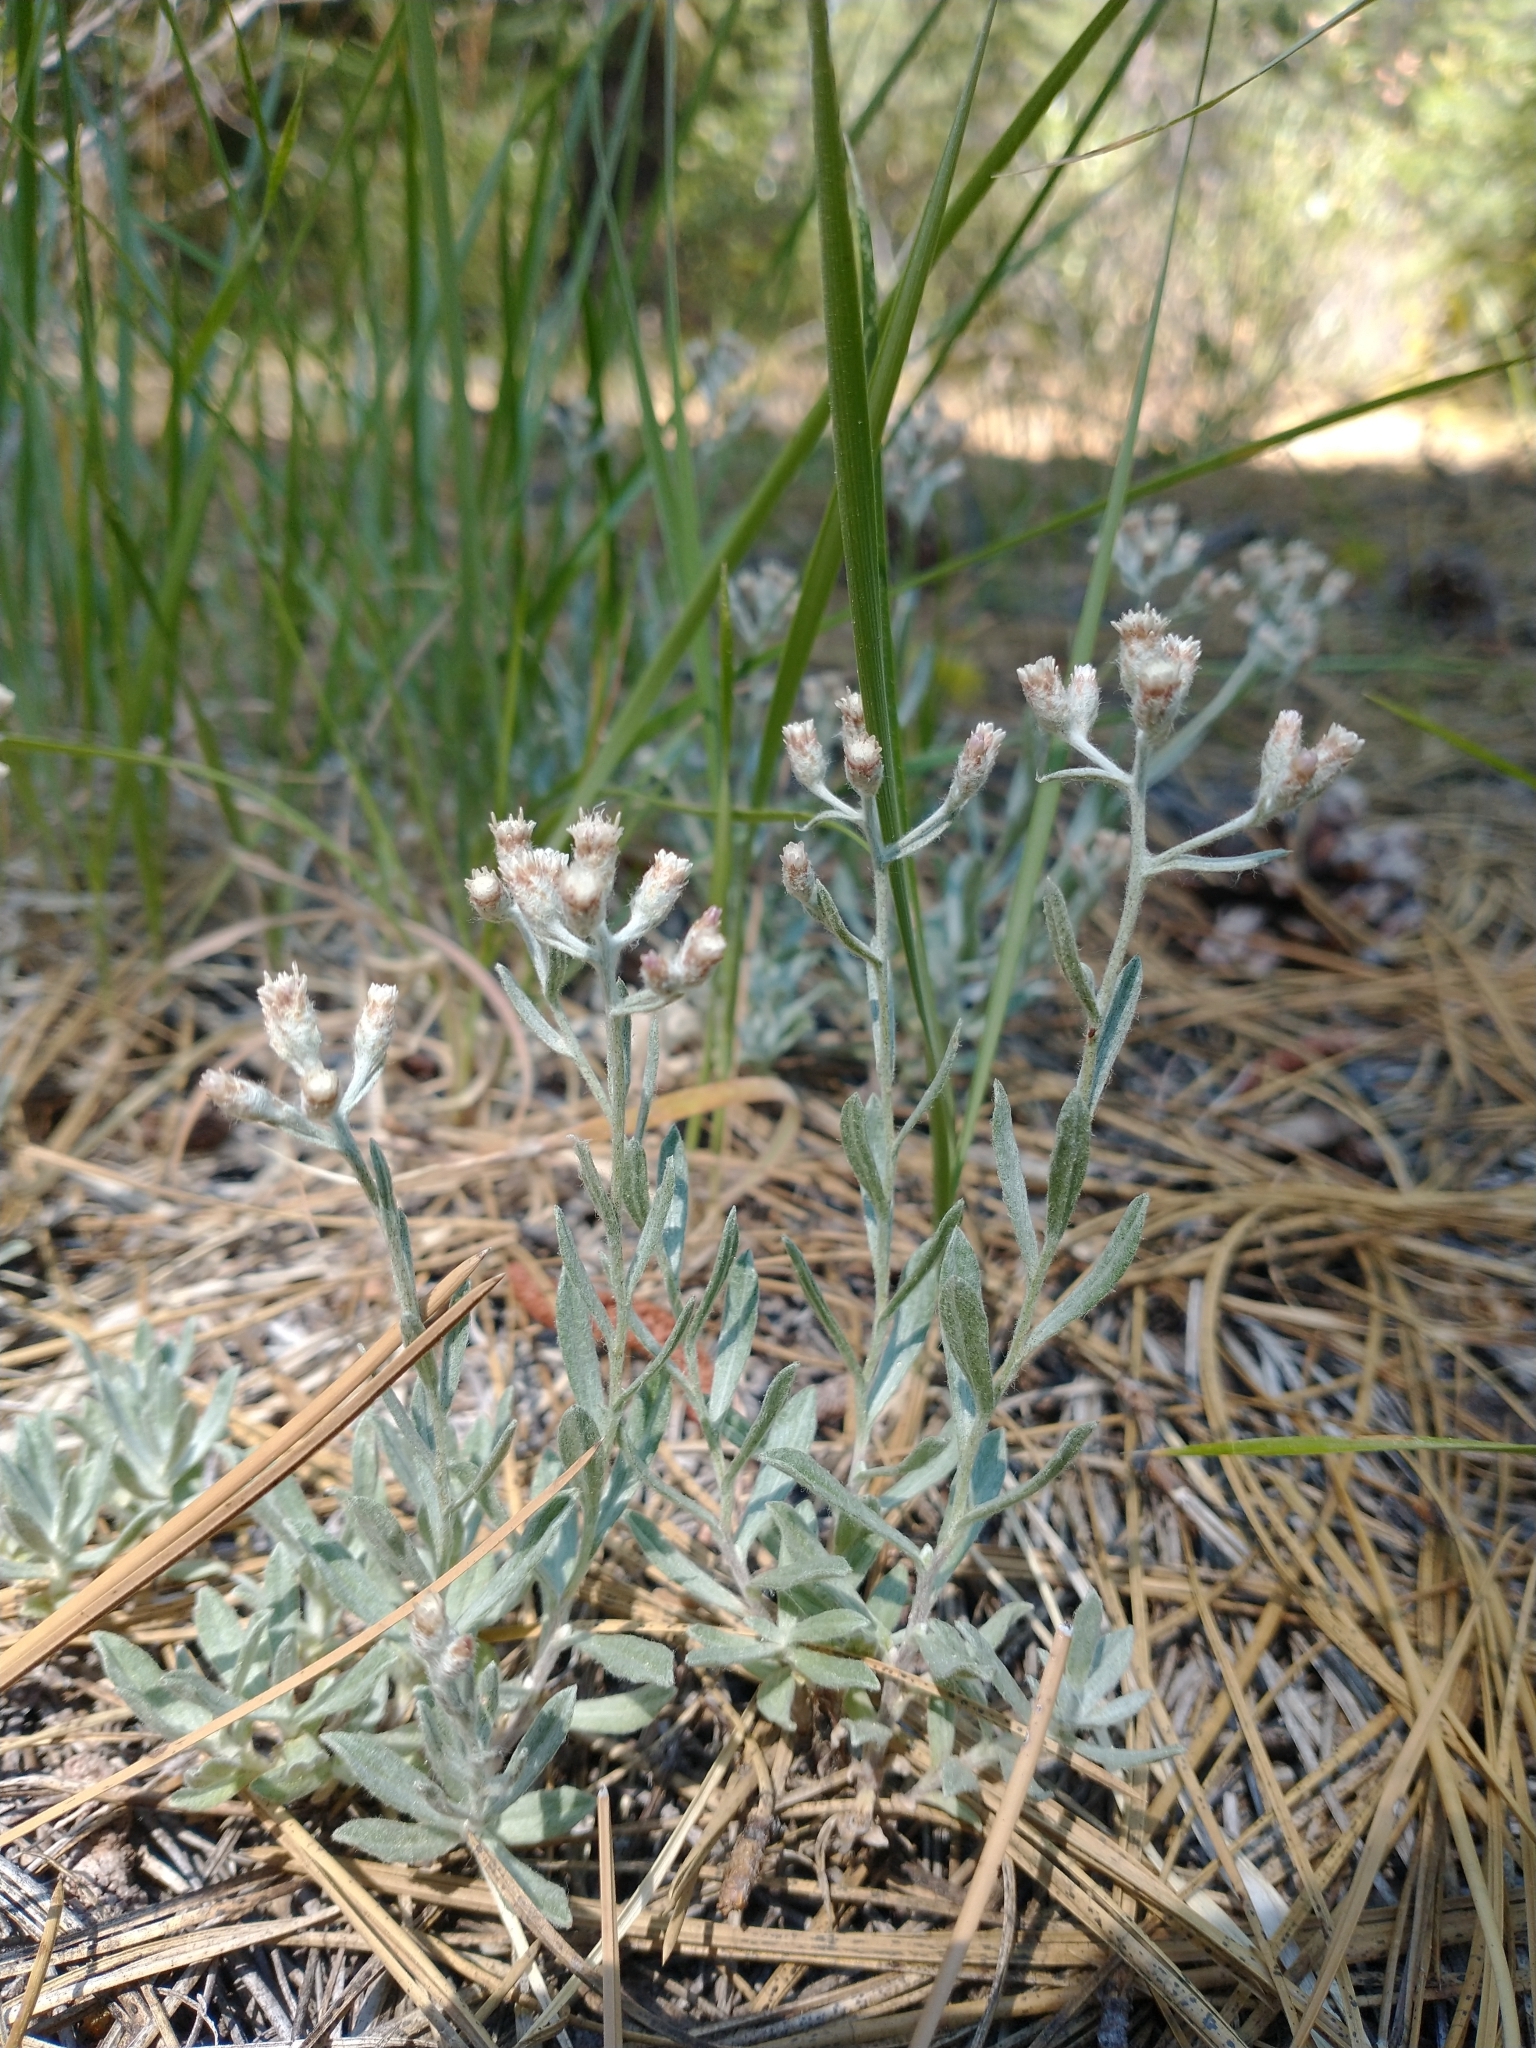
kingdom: Plantae
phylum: Tracheophyta
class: Magnoliopsida
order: Asterales
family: Asteraceae
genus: Antennaria
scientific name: Antennaria geyeri
